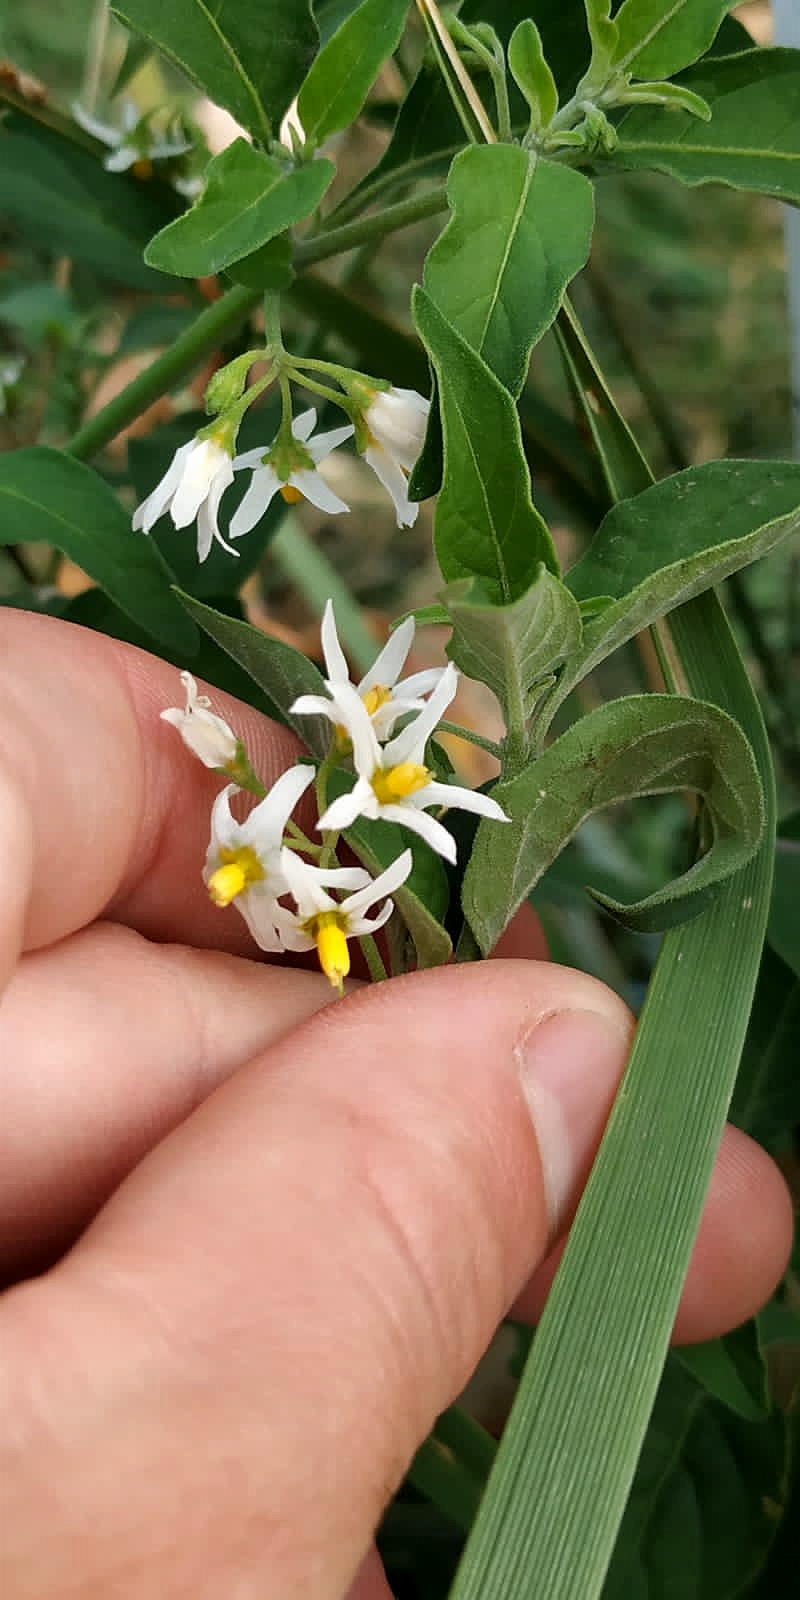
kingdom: Plantae
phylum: Tracheophyta
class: Magnoliopsida
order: Solanales
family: Solanaceae
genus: Solanum
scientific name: Solanum chenopodioides
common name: Tall nightshade
